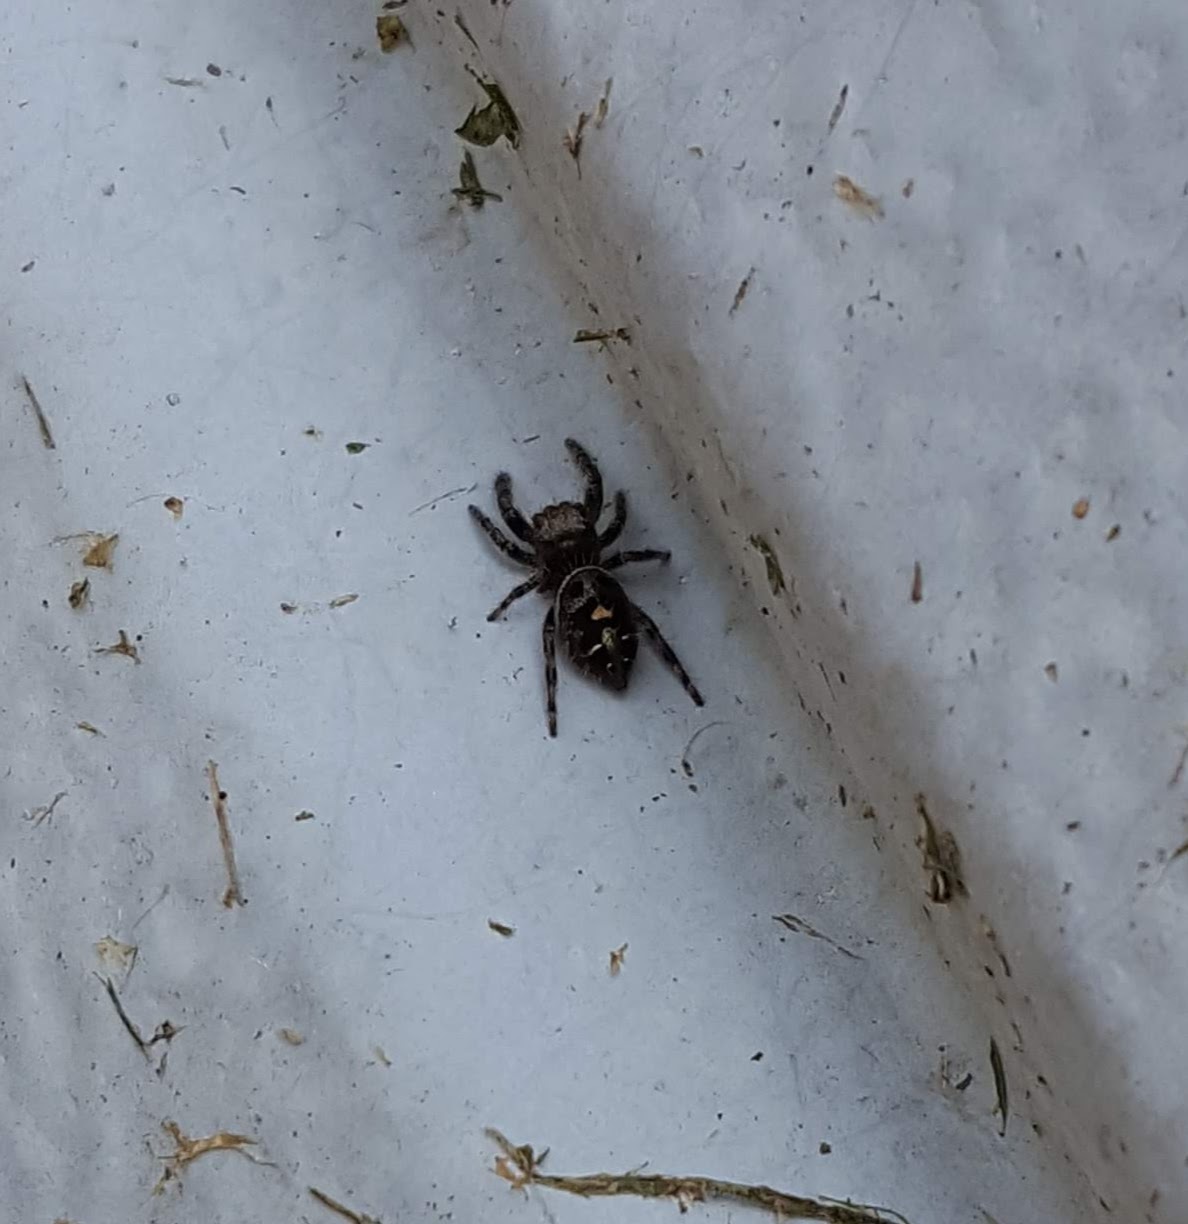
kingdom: Animalia
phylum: Arthropoda
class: Arachnida
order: Araneae
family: Salticidae
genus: Phidippus
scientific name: Phidippus audax
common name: Bold jumper
